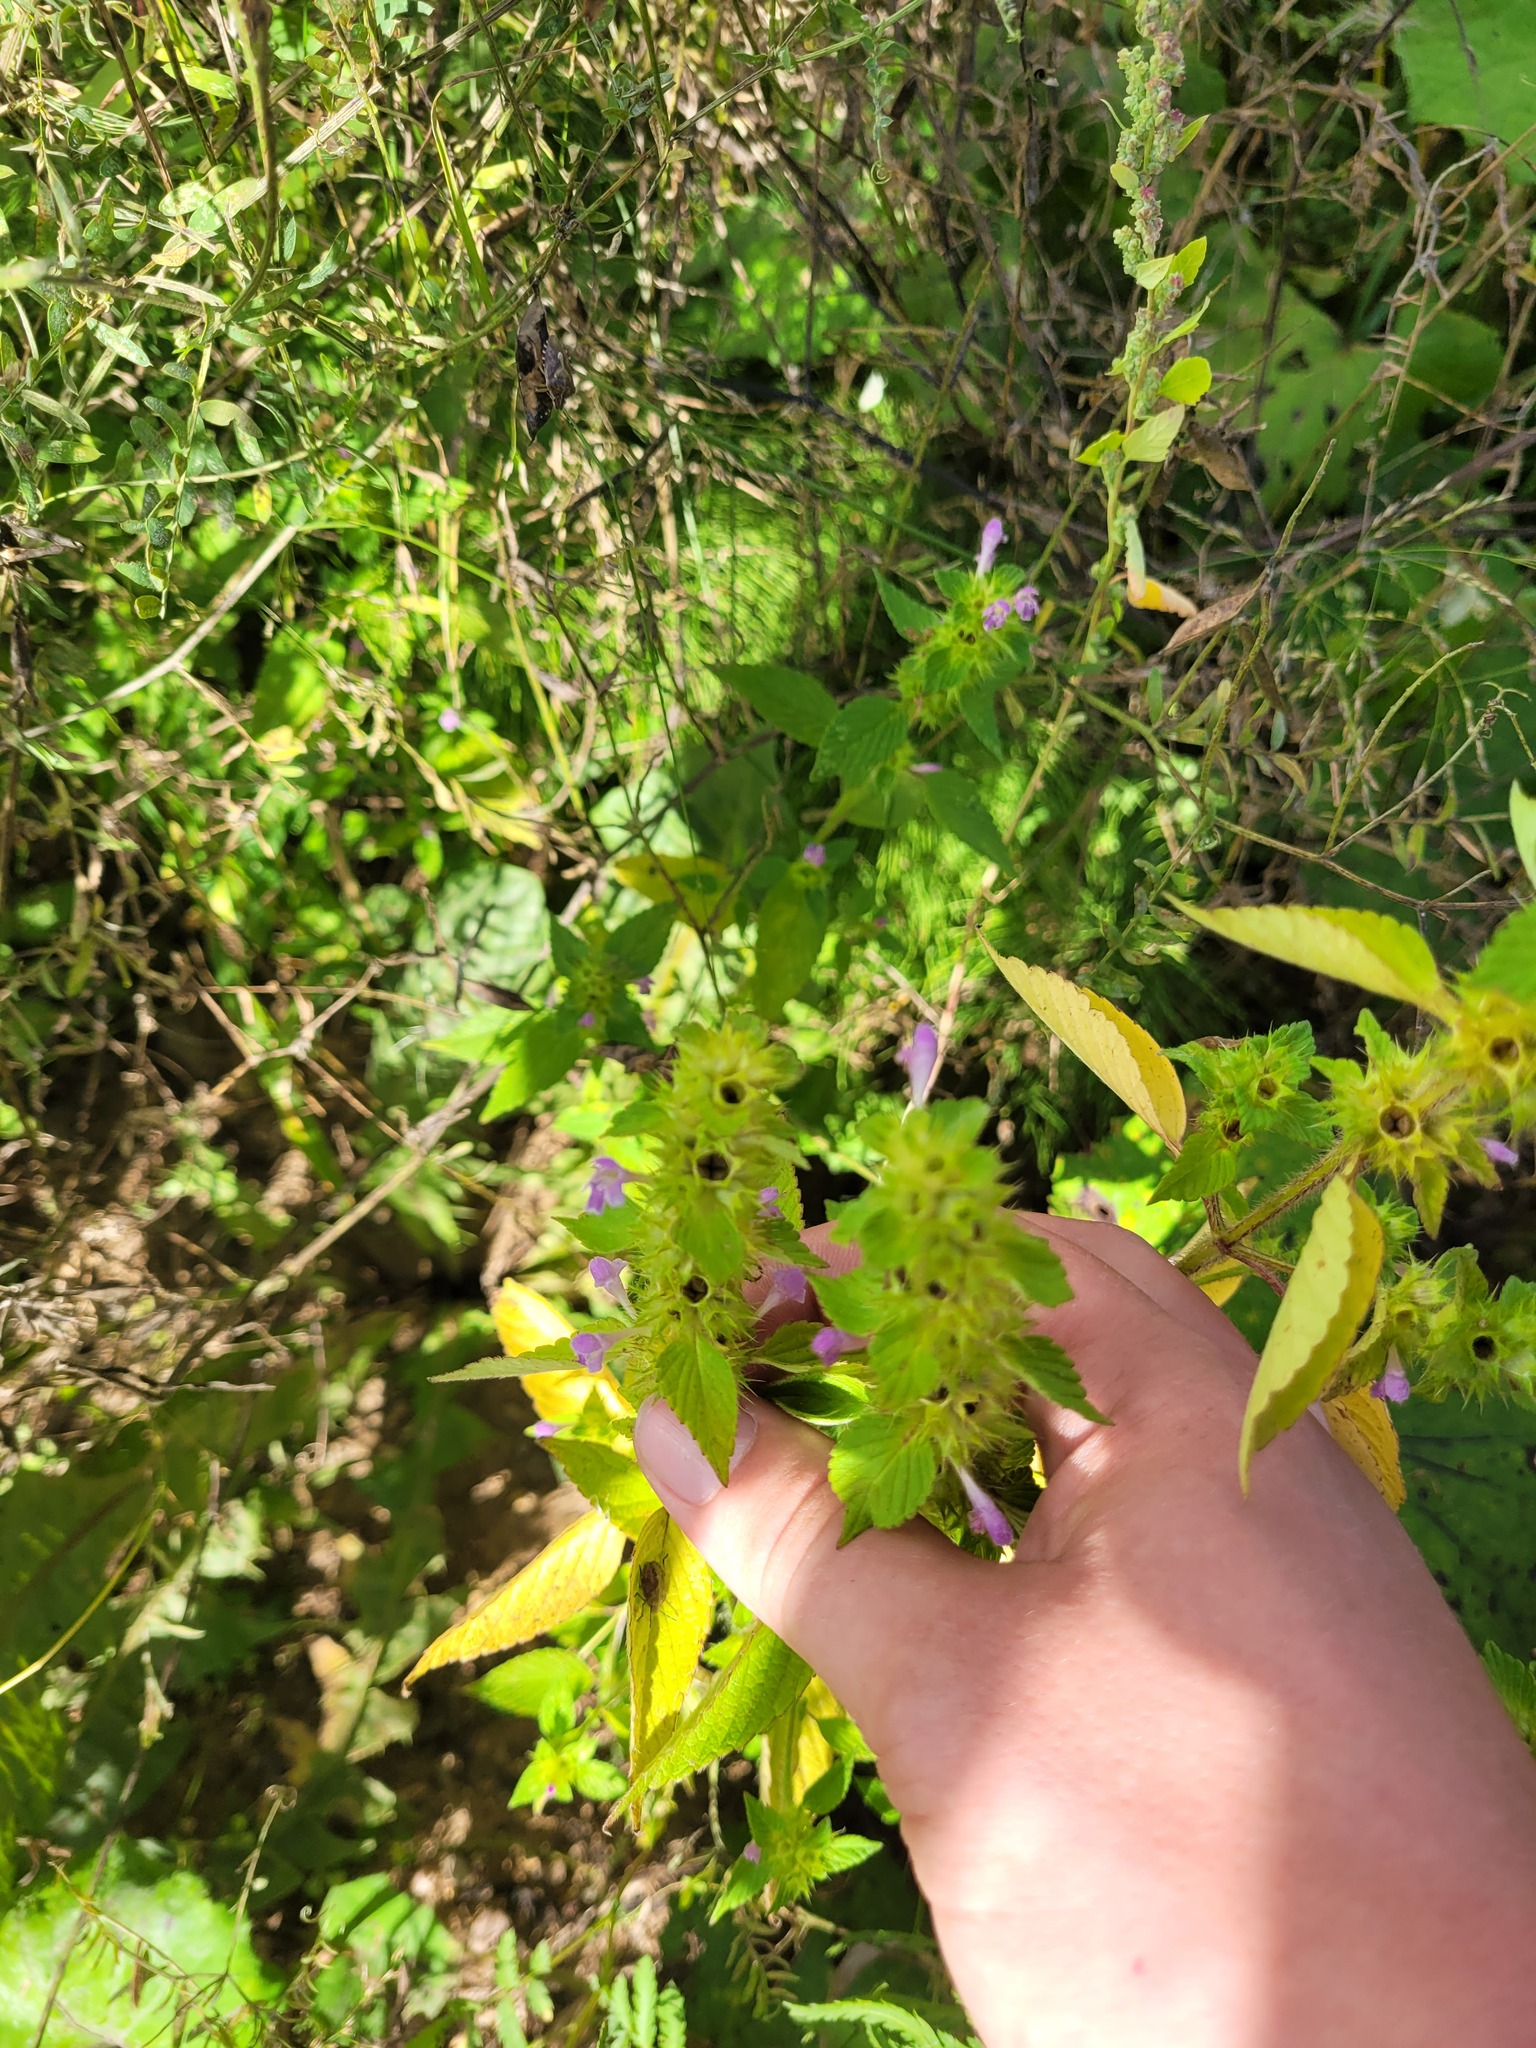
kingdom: Plantae
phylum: Tracheophyta
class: Magnoliopsida
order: Lamiales
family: Lamiaceae
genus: Galeopsis
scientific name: Galeopsis bifida
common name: Bifid hemp-nettle
